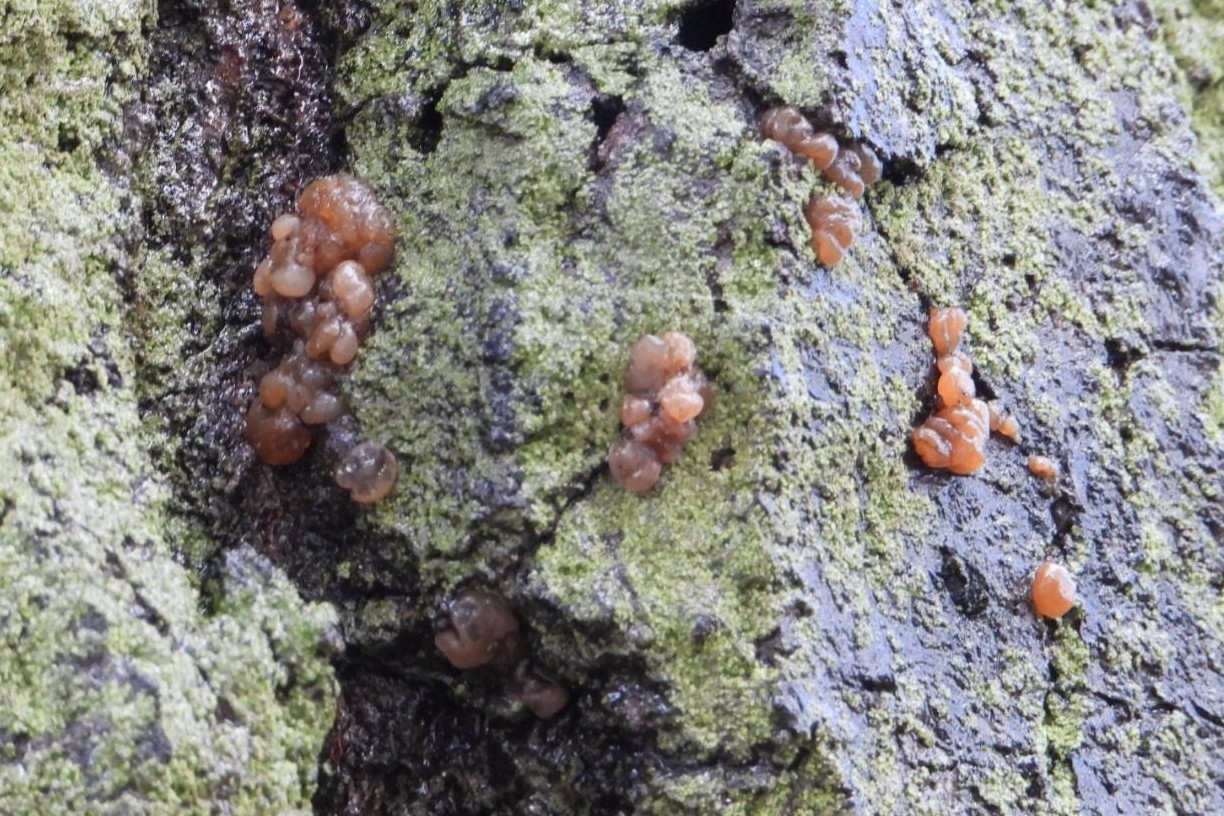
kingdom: Fungi
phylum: Basidiomycota
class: Agaricomycetes
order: Auriculariales
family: Hyaloriaceae
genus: Myxarium
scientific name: Myxarium nucleatum
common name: Crystal brain fungus
